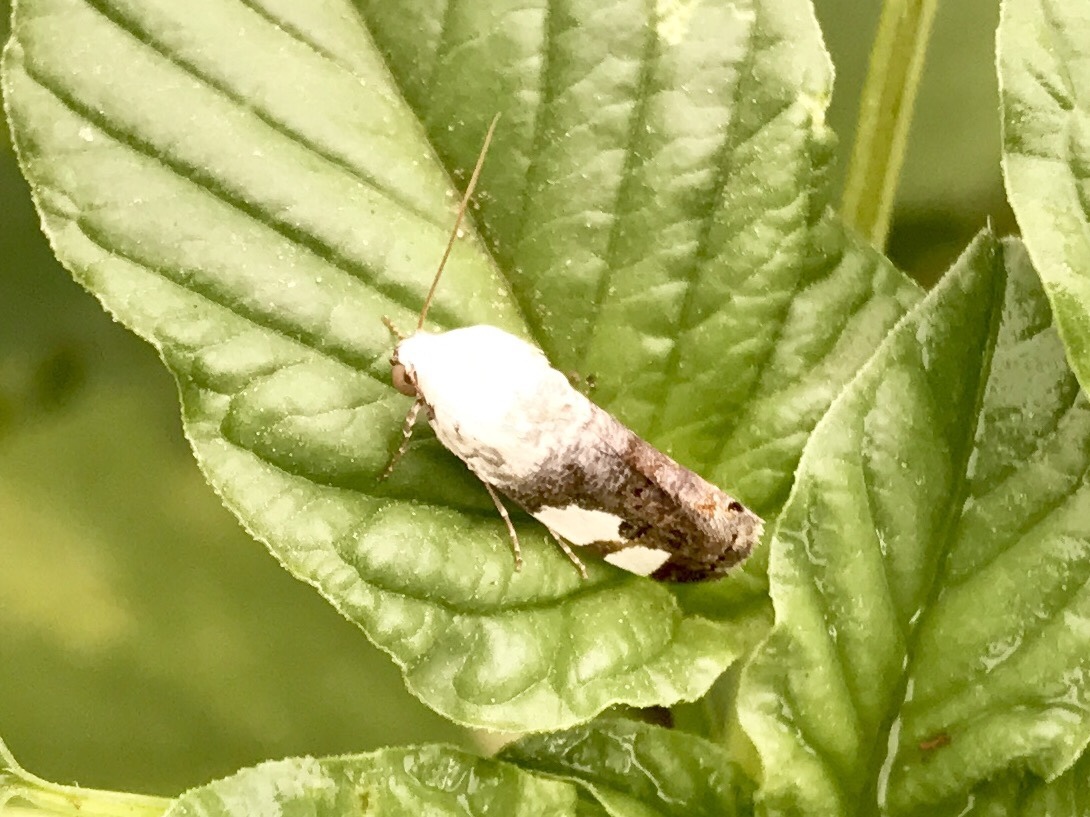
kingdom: Animalia
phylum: Arthropoda
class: Insecta
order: Lepidoptera
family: Noctuidae
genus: Acontia
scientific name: Acontia quadriplaga
